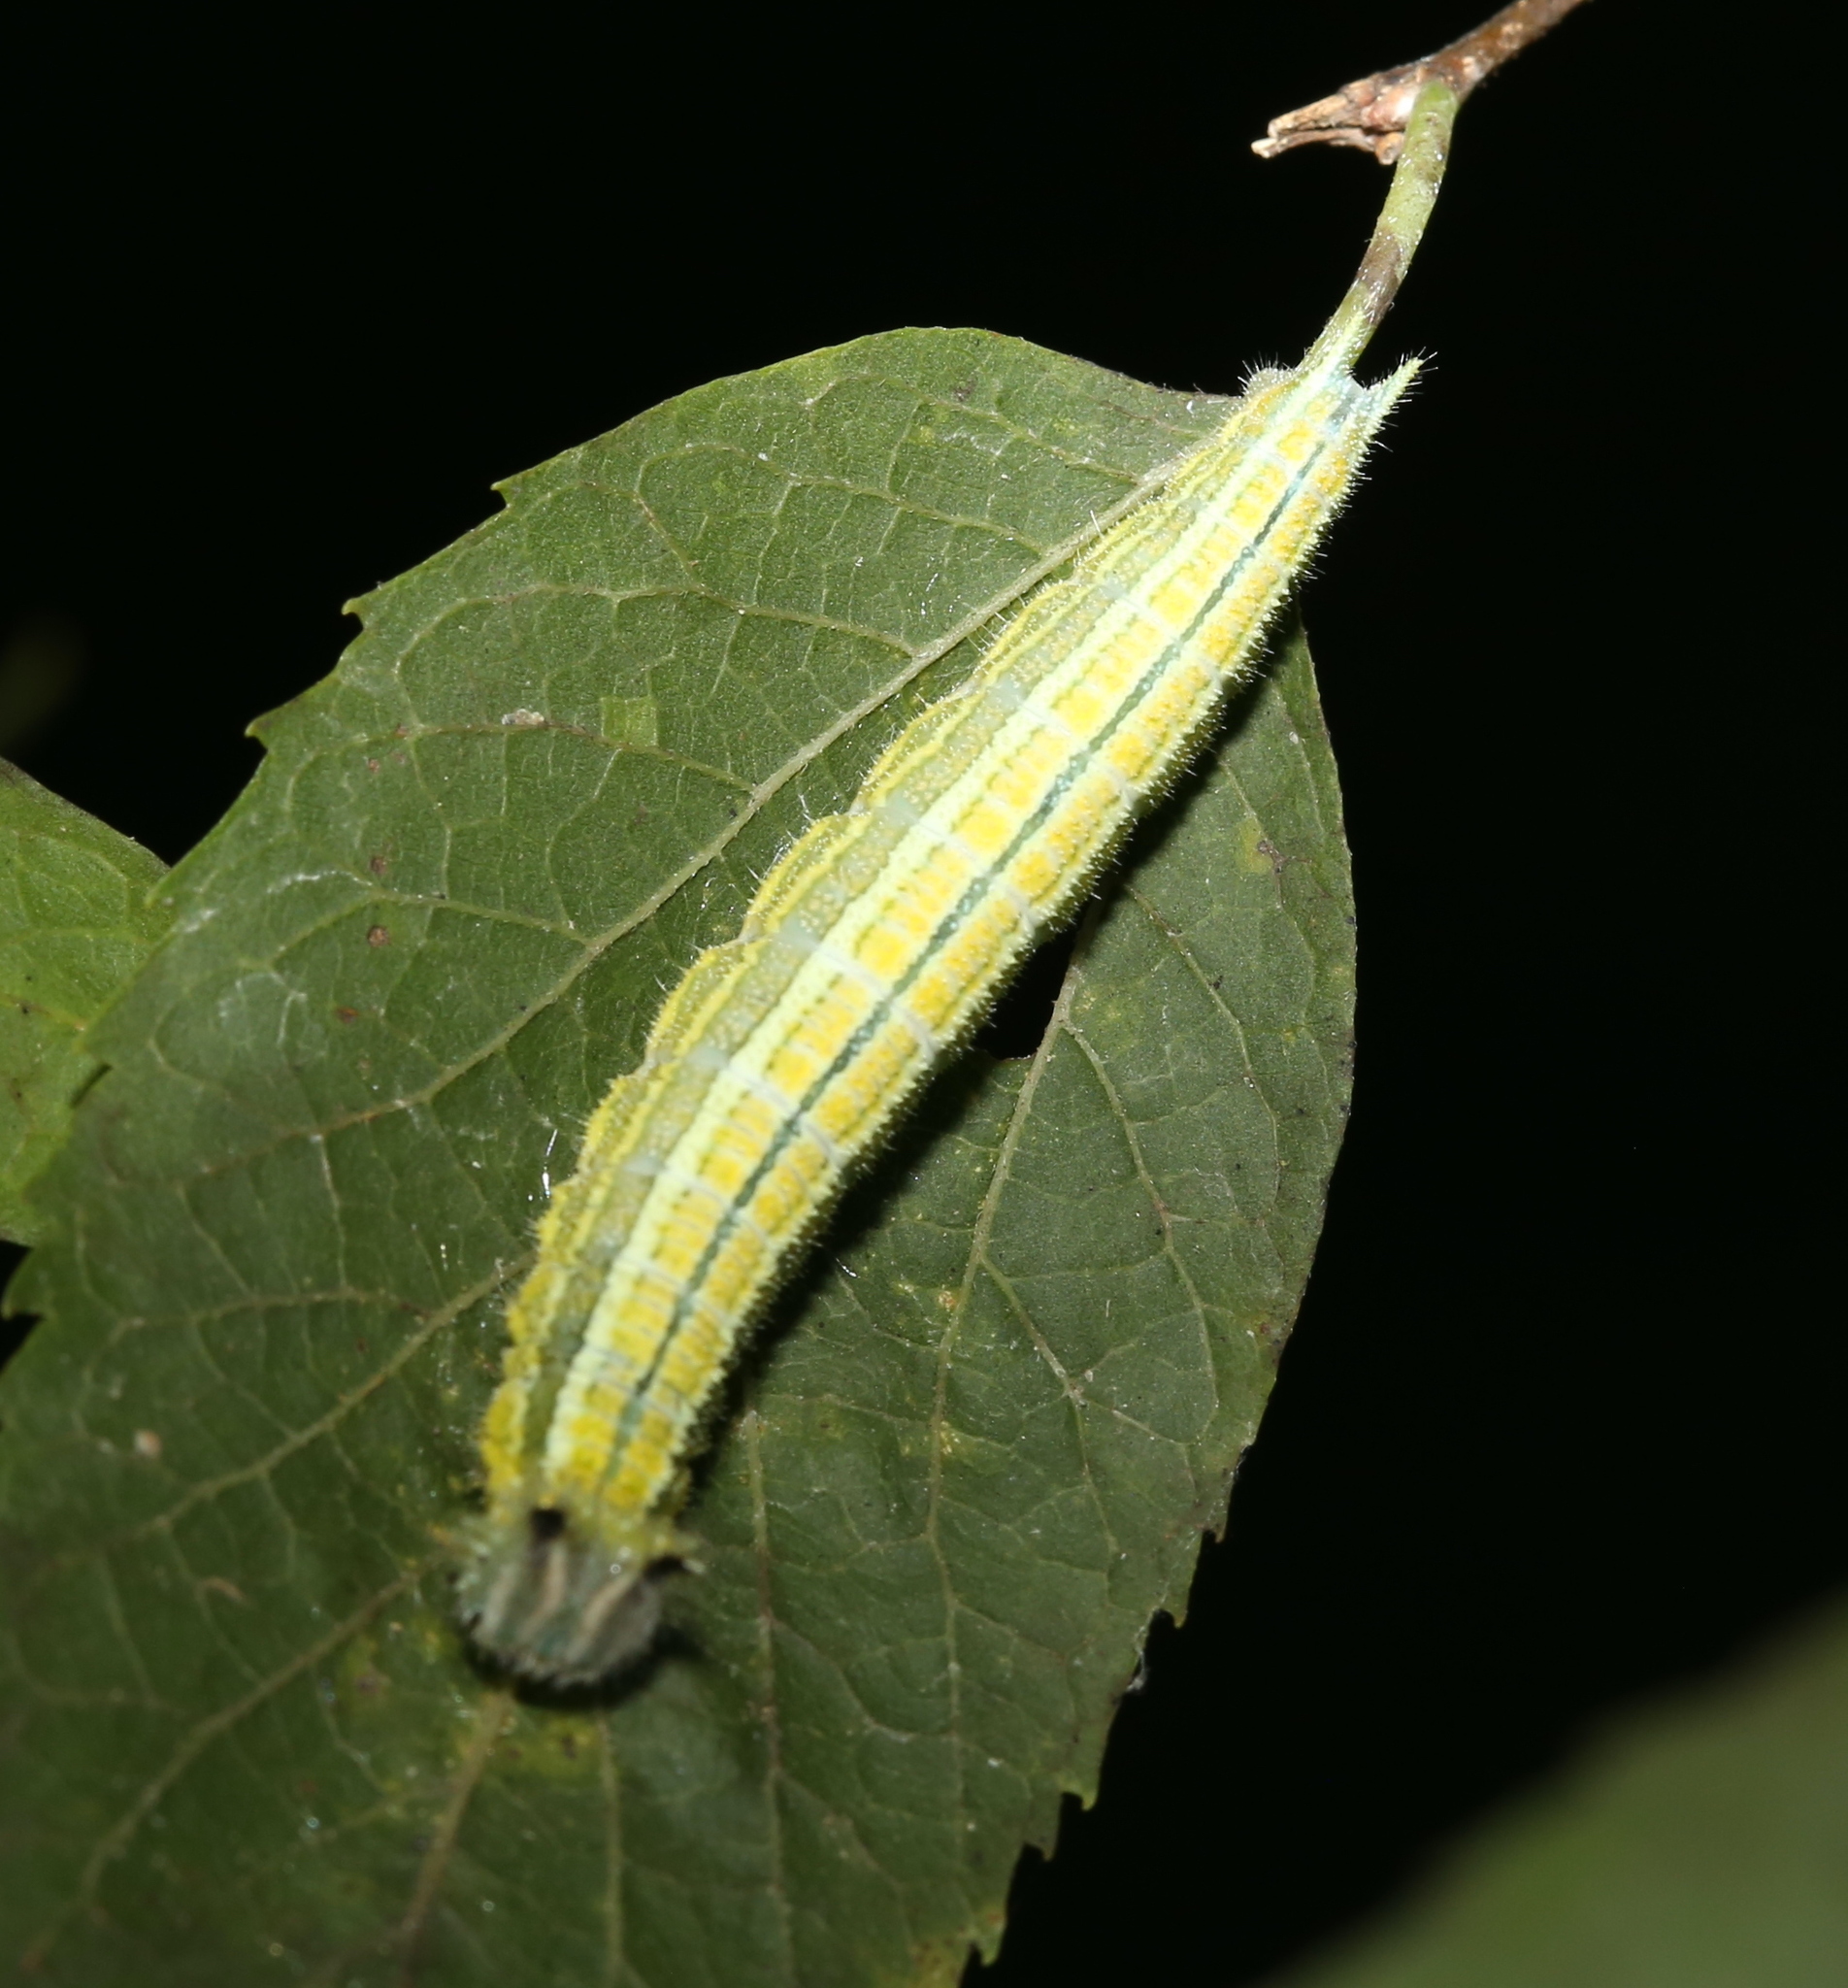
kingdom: Animalia
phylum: Arthropoda
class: Insecta
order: Lepidoptera
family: Nymphalidae
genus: Asterocampa
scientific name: Asterocampa clyton
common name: Tawny emperor
